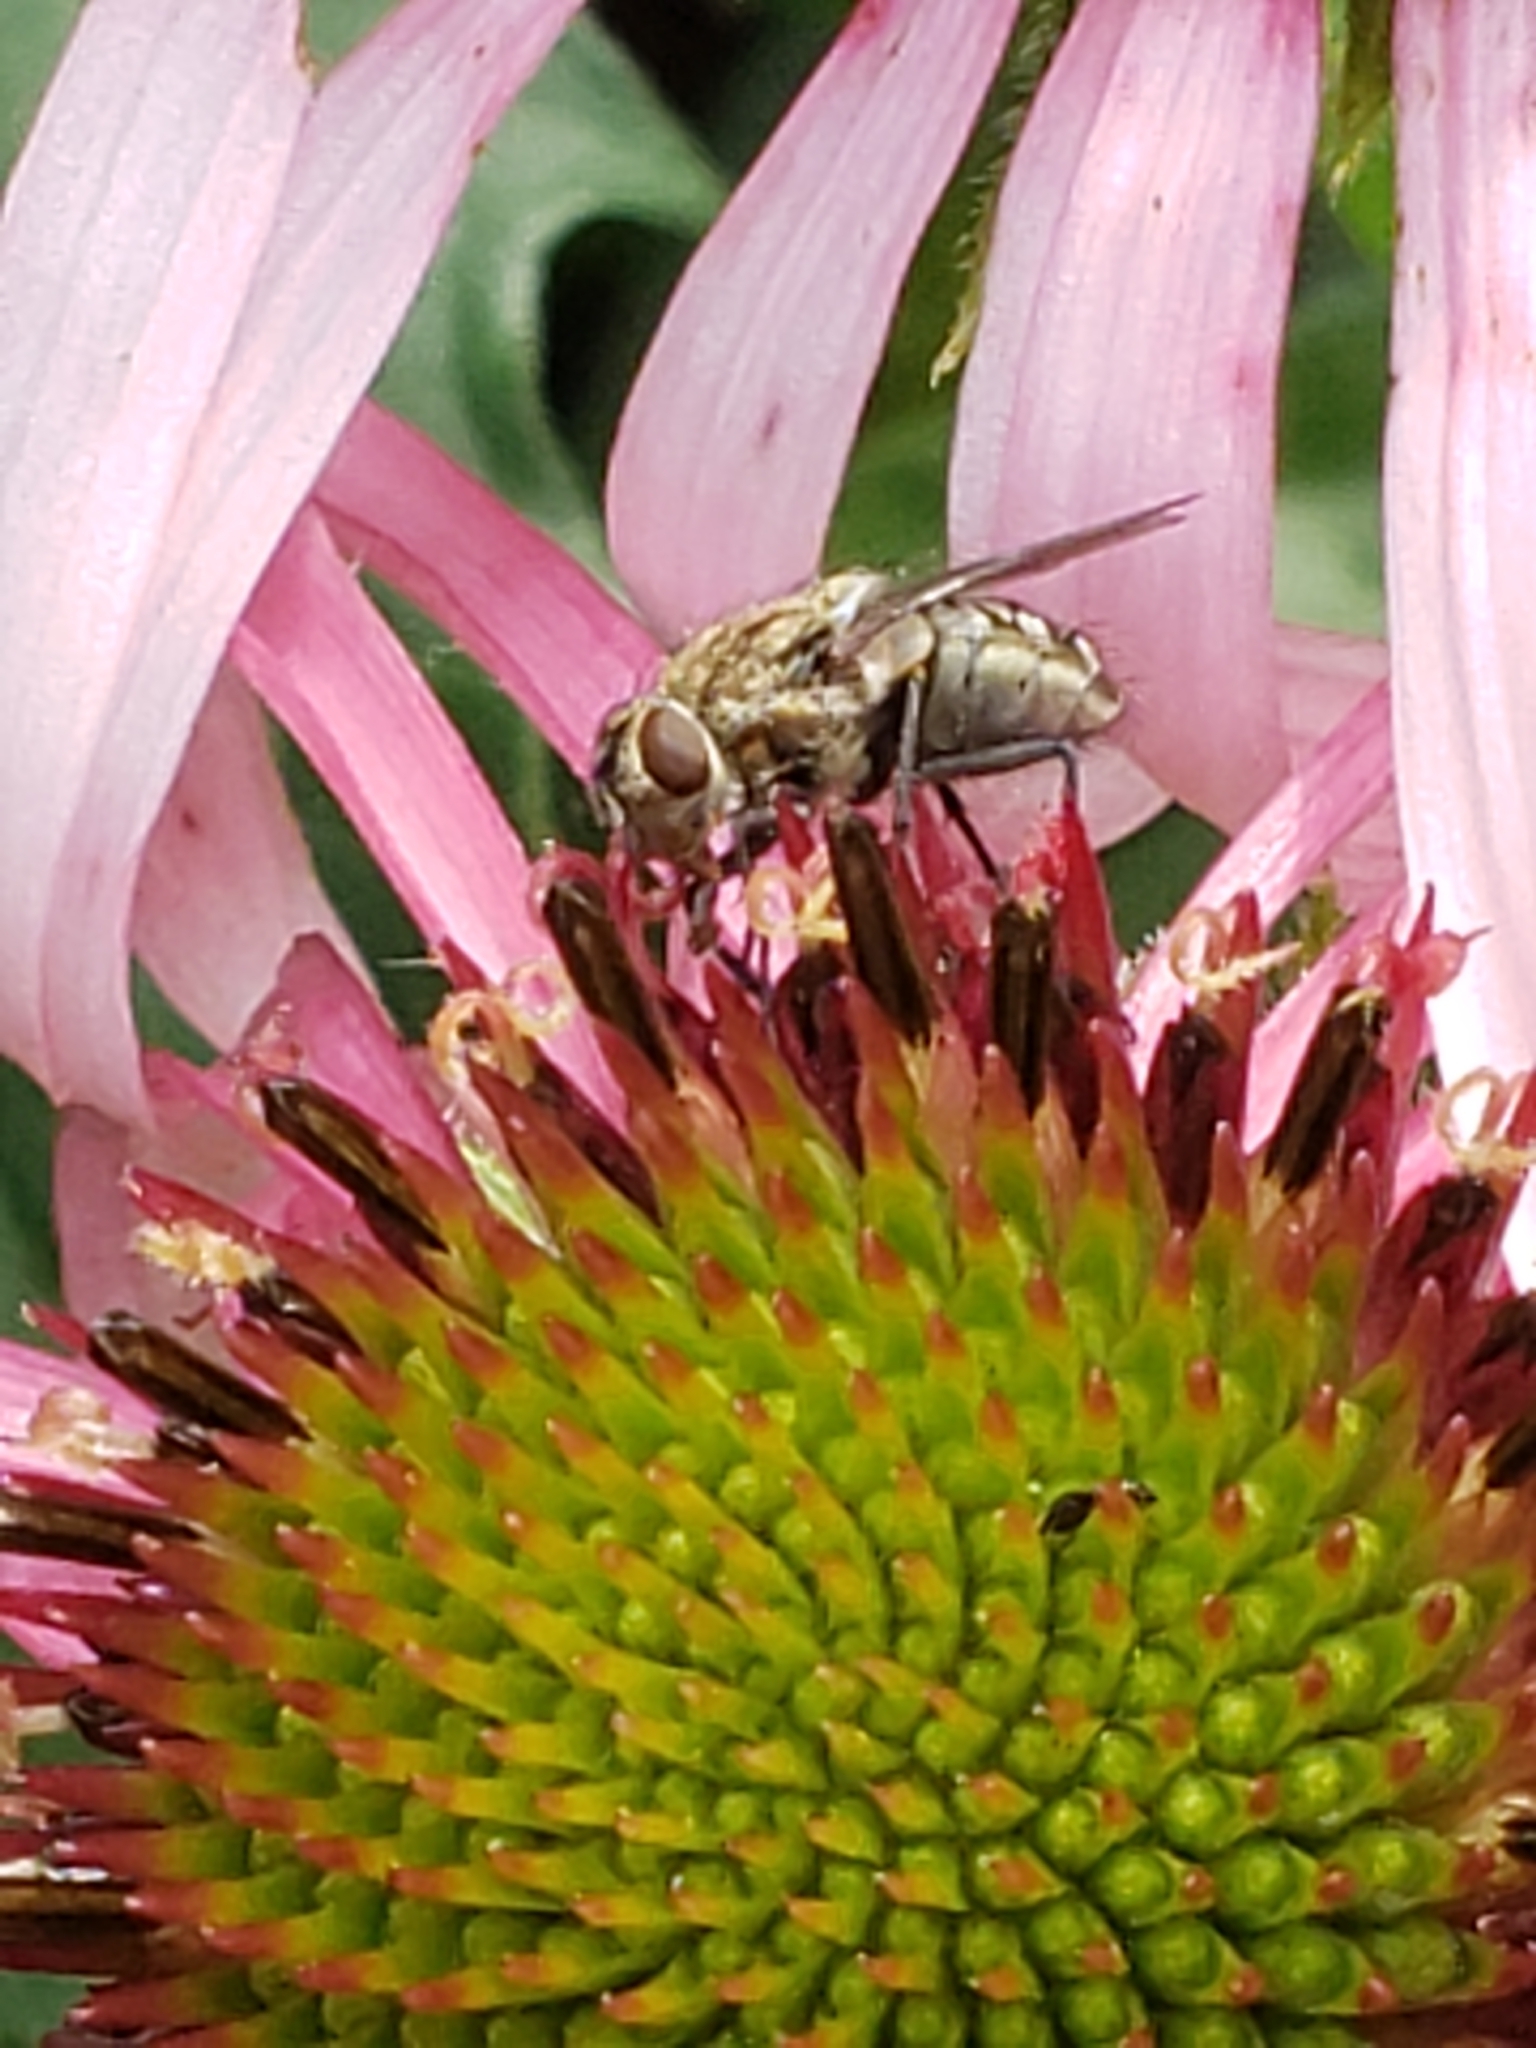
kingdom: Animalia
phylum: Arthropoda
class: Insecta
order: Diptera
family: Polleniidae
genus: Pollenia
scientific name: Pollenia
